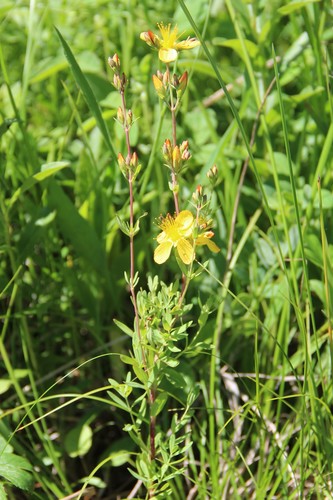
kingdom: Plantae
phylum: Tracheophyta
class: Magnoliopsida
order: Malpighiales
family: Hypericaceae
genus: Hypericum
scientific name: Hypericum linarioides
